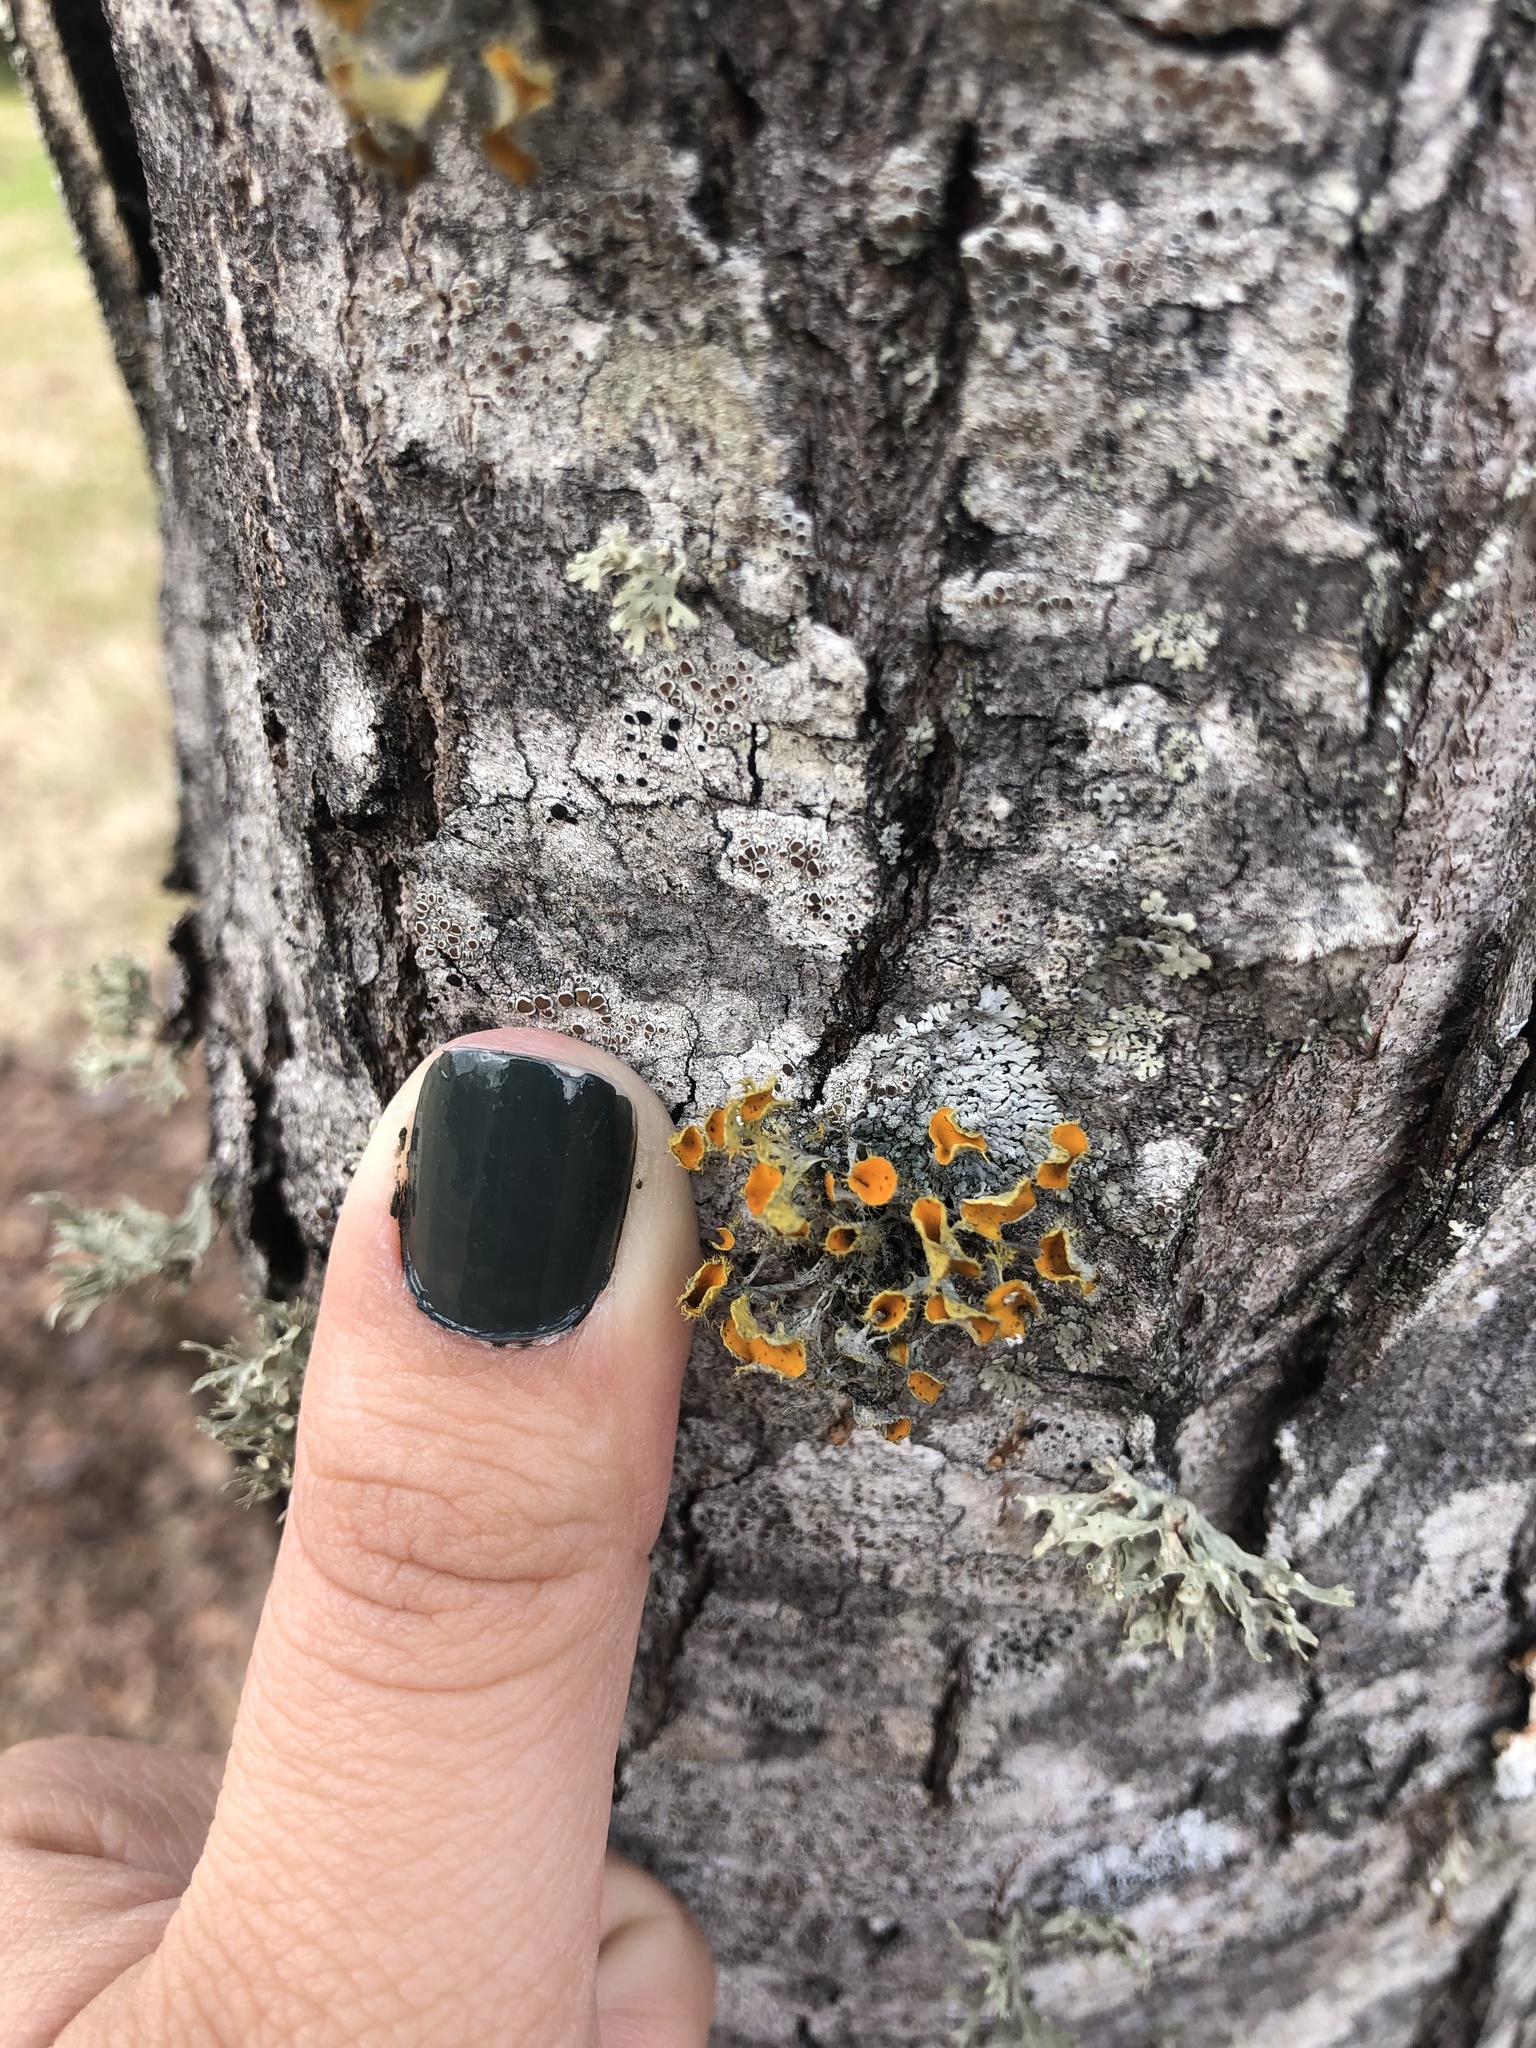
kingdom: Fungi
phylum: Ascomycota
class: Lecanoromycetes
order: Teloschistales
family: Teloschistaceae
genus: Niorma
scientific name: Niorma chrysophthalma
